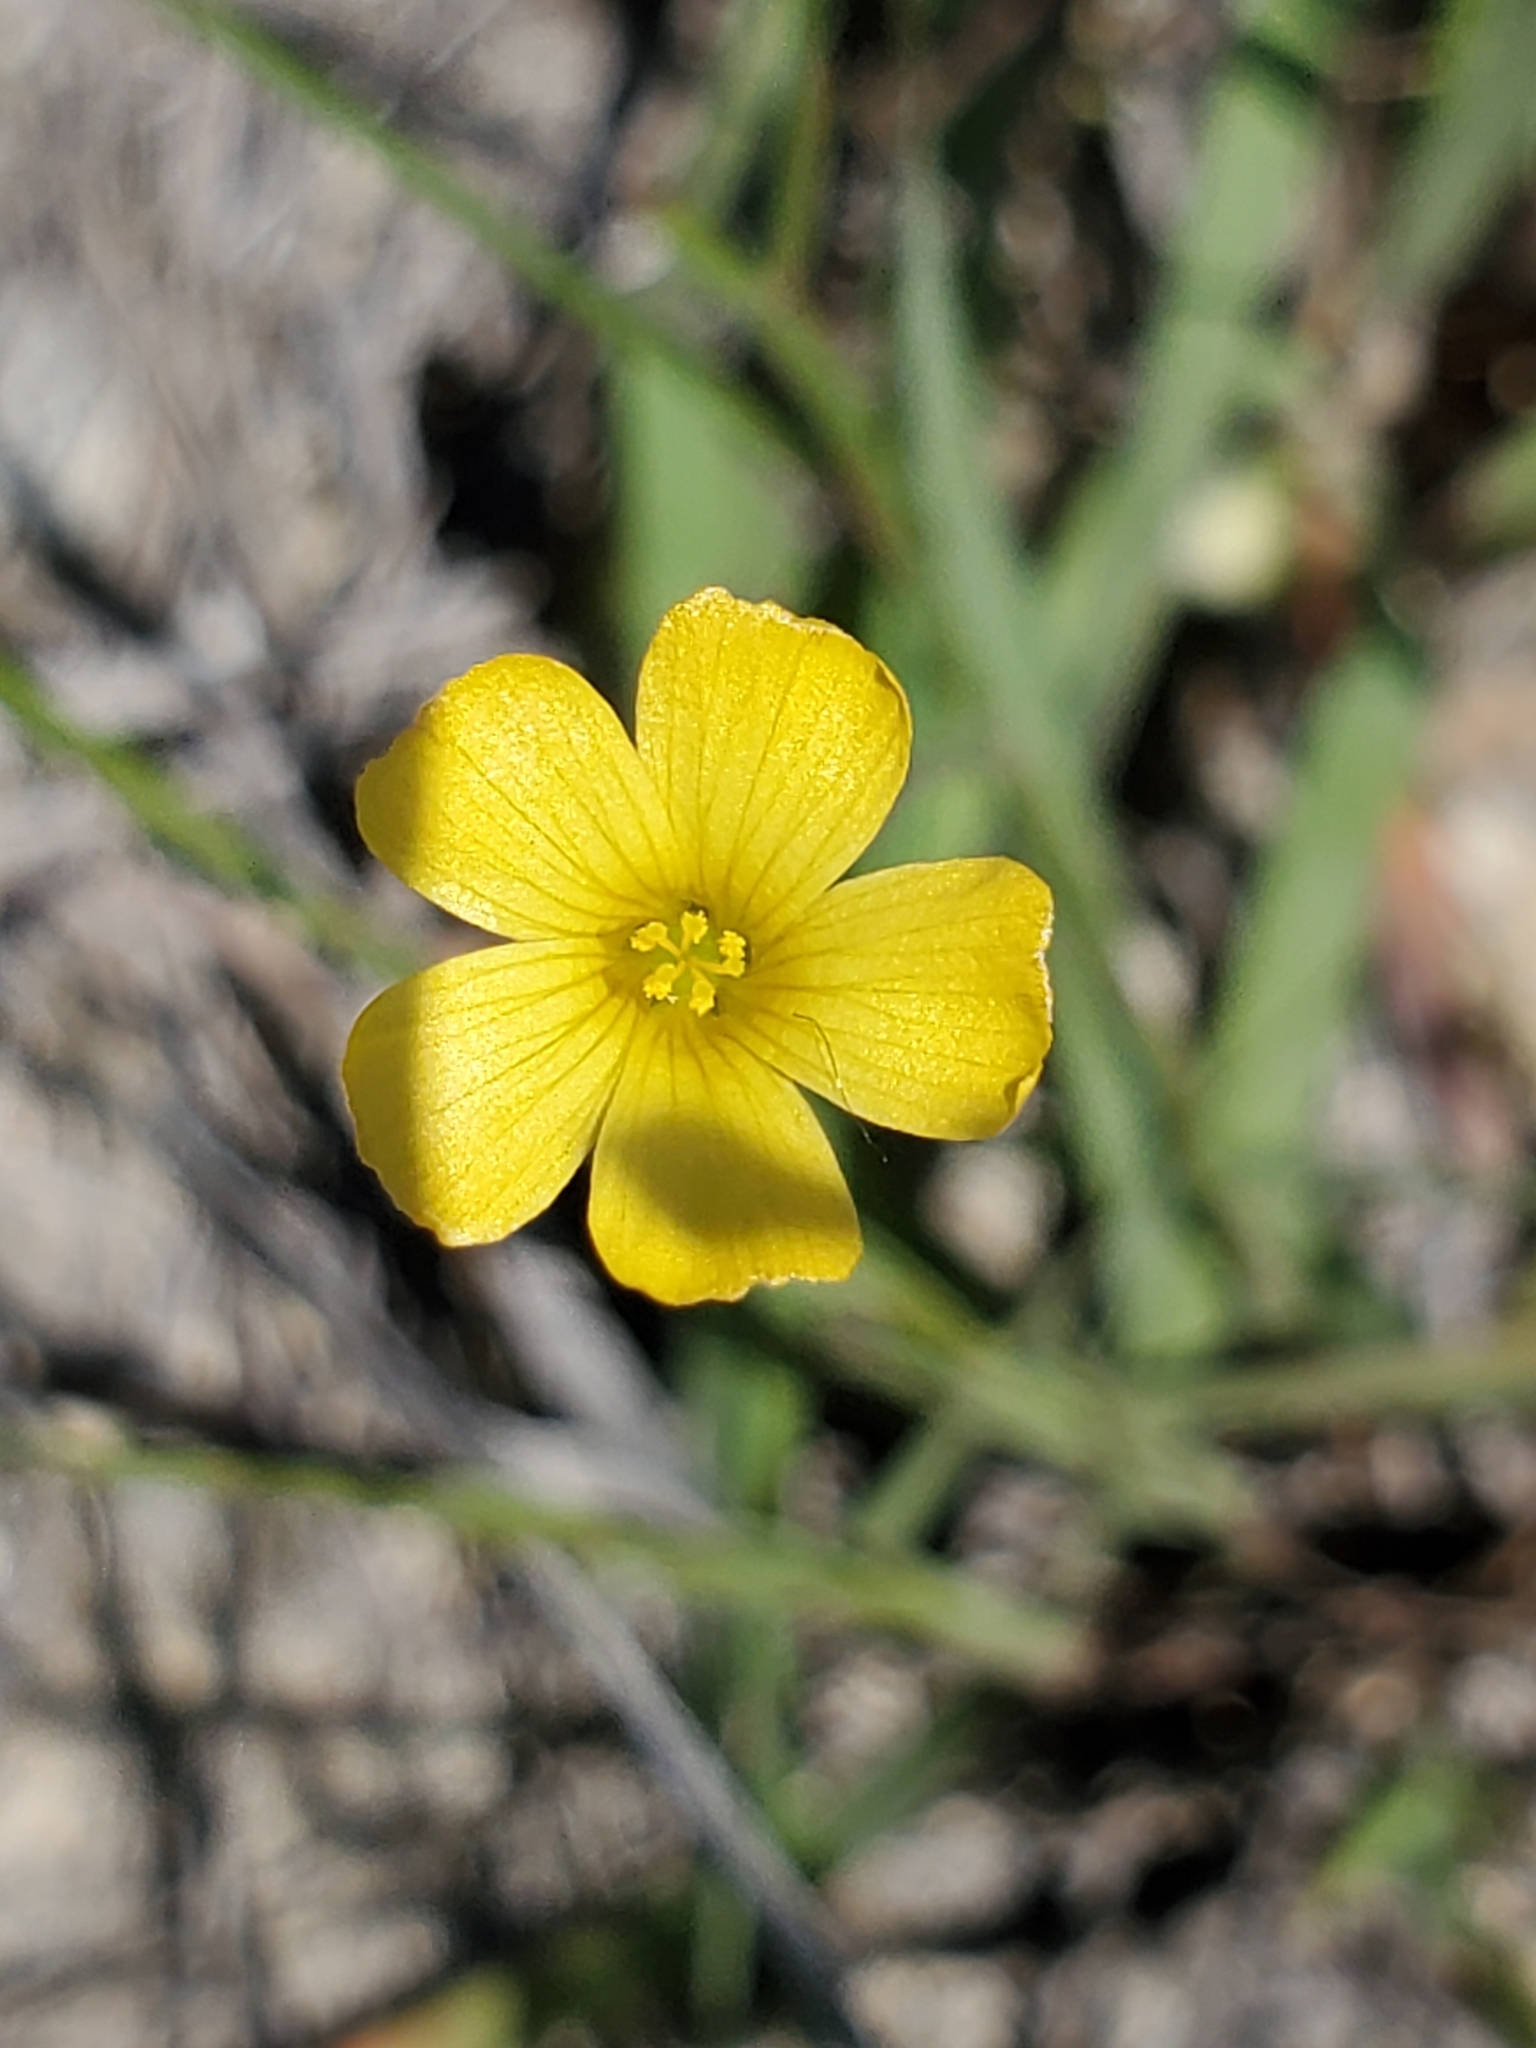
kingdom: Plantae
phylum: Tracheophyta
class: Magnoliopsida
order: Malpighiales
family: Linaceae
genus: Linum
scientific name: Linum rupestre
